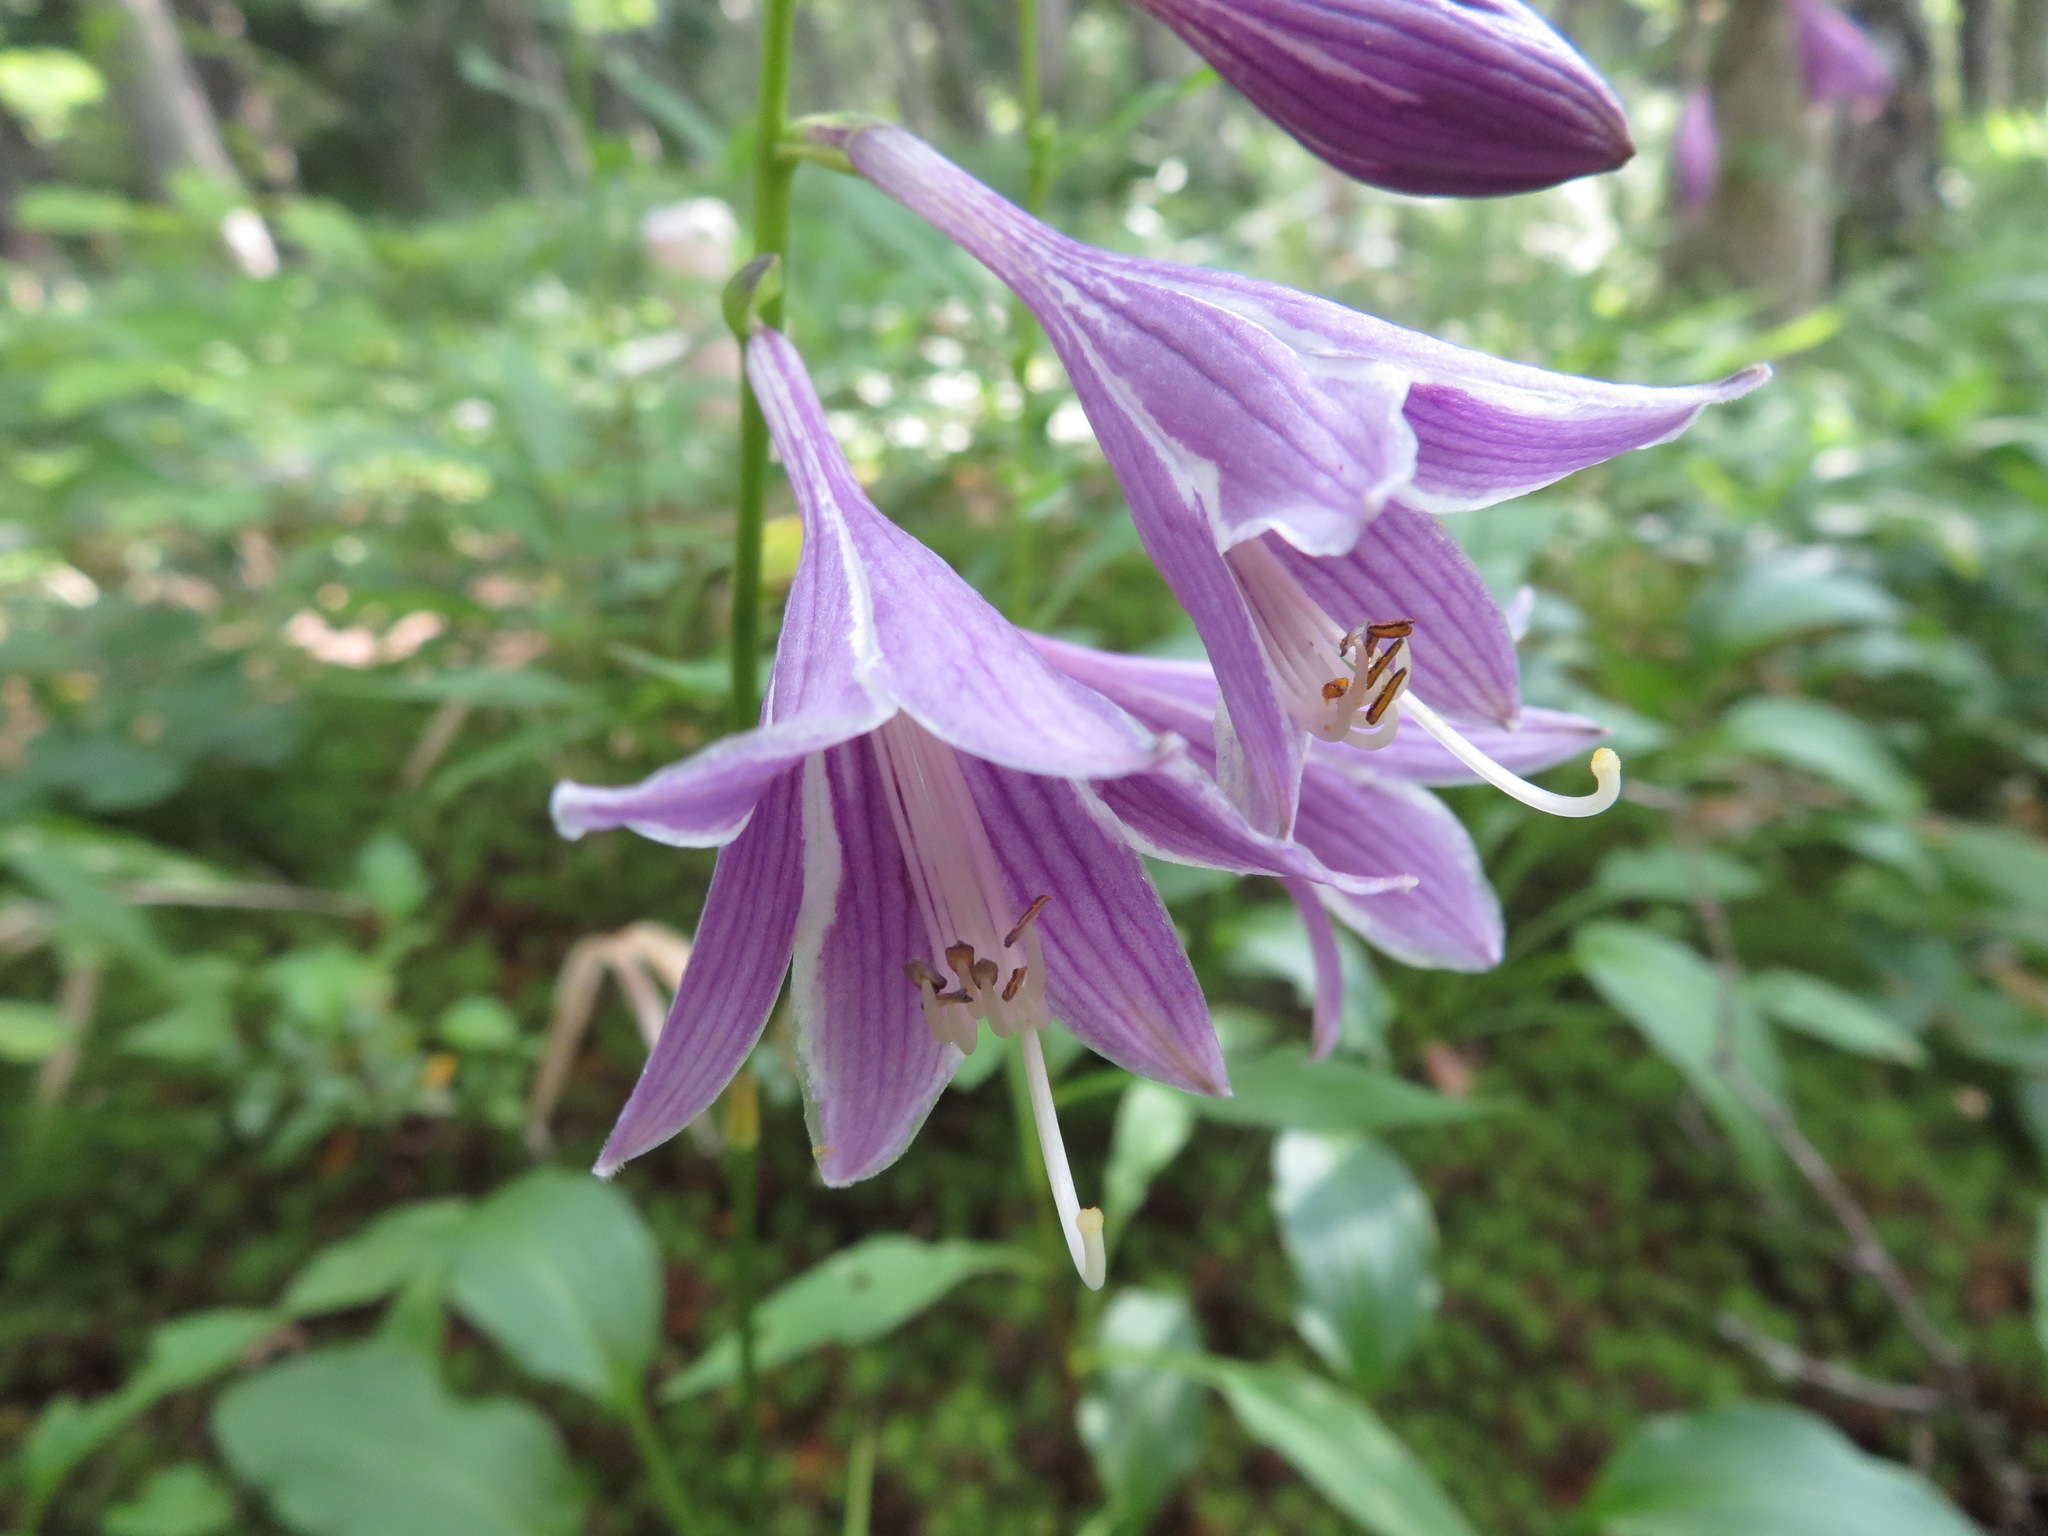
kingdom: Plantae
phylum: Tracheophyta
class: Liliopsida
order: Asparagales
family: Asparagaceae
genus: Hosta
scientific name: Hosta sieboldii
